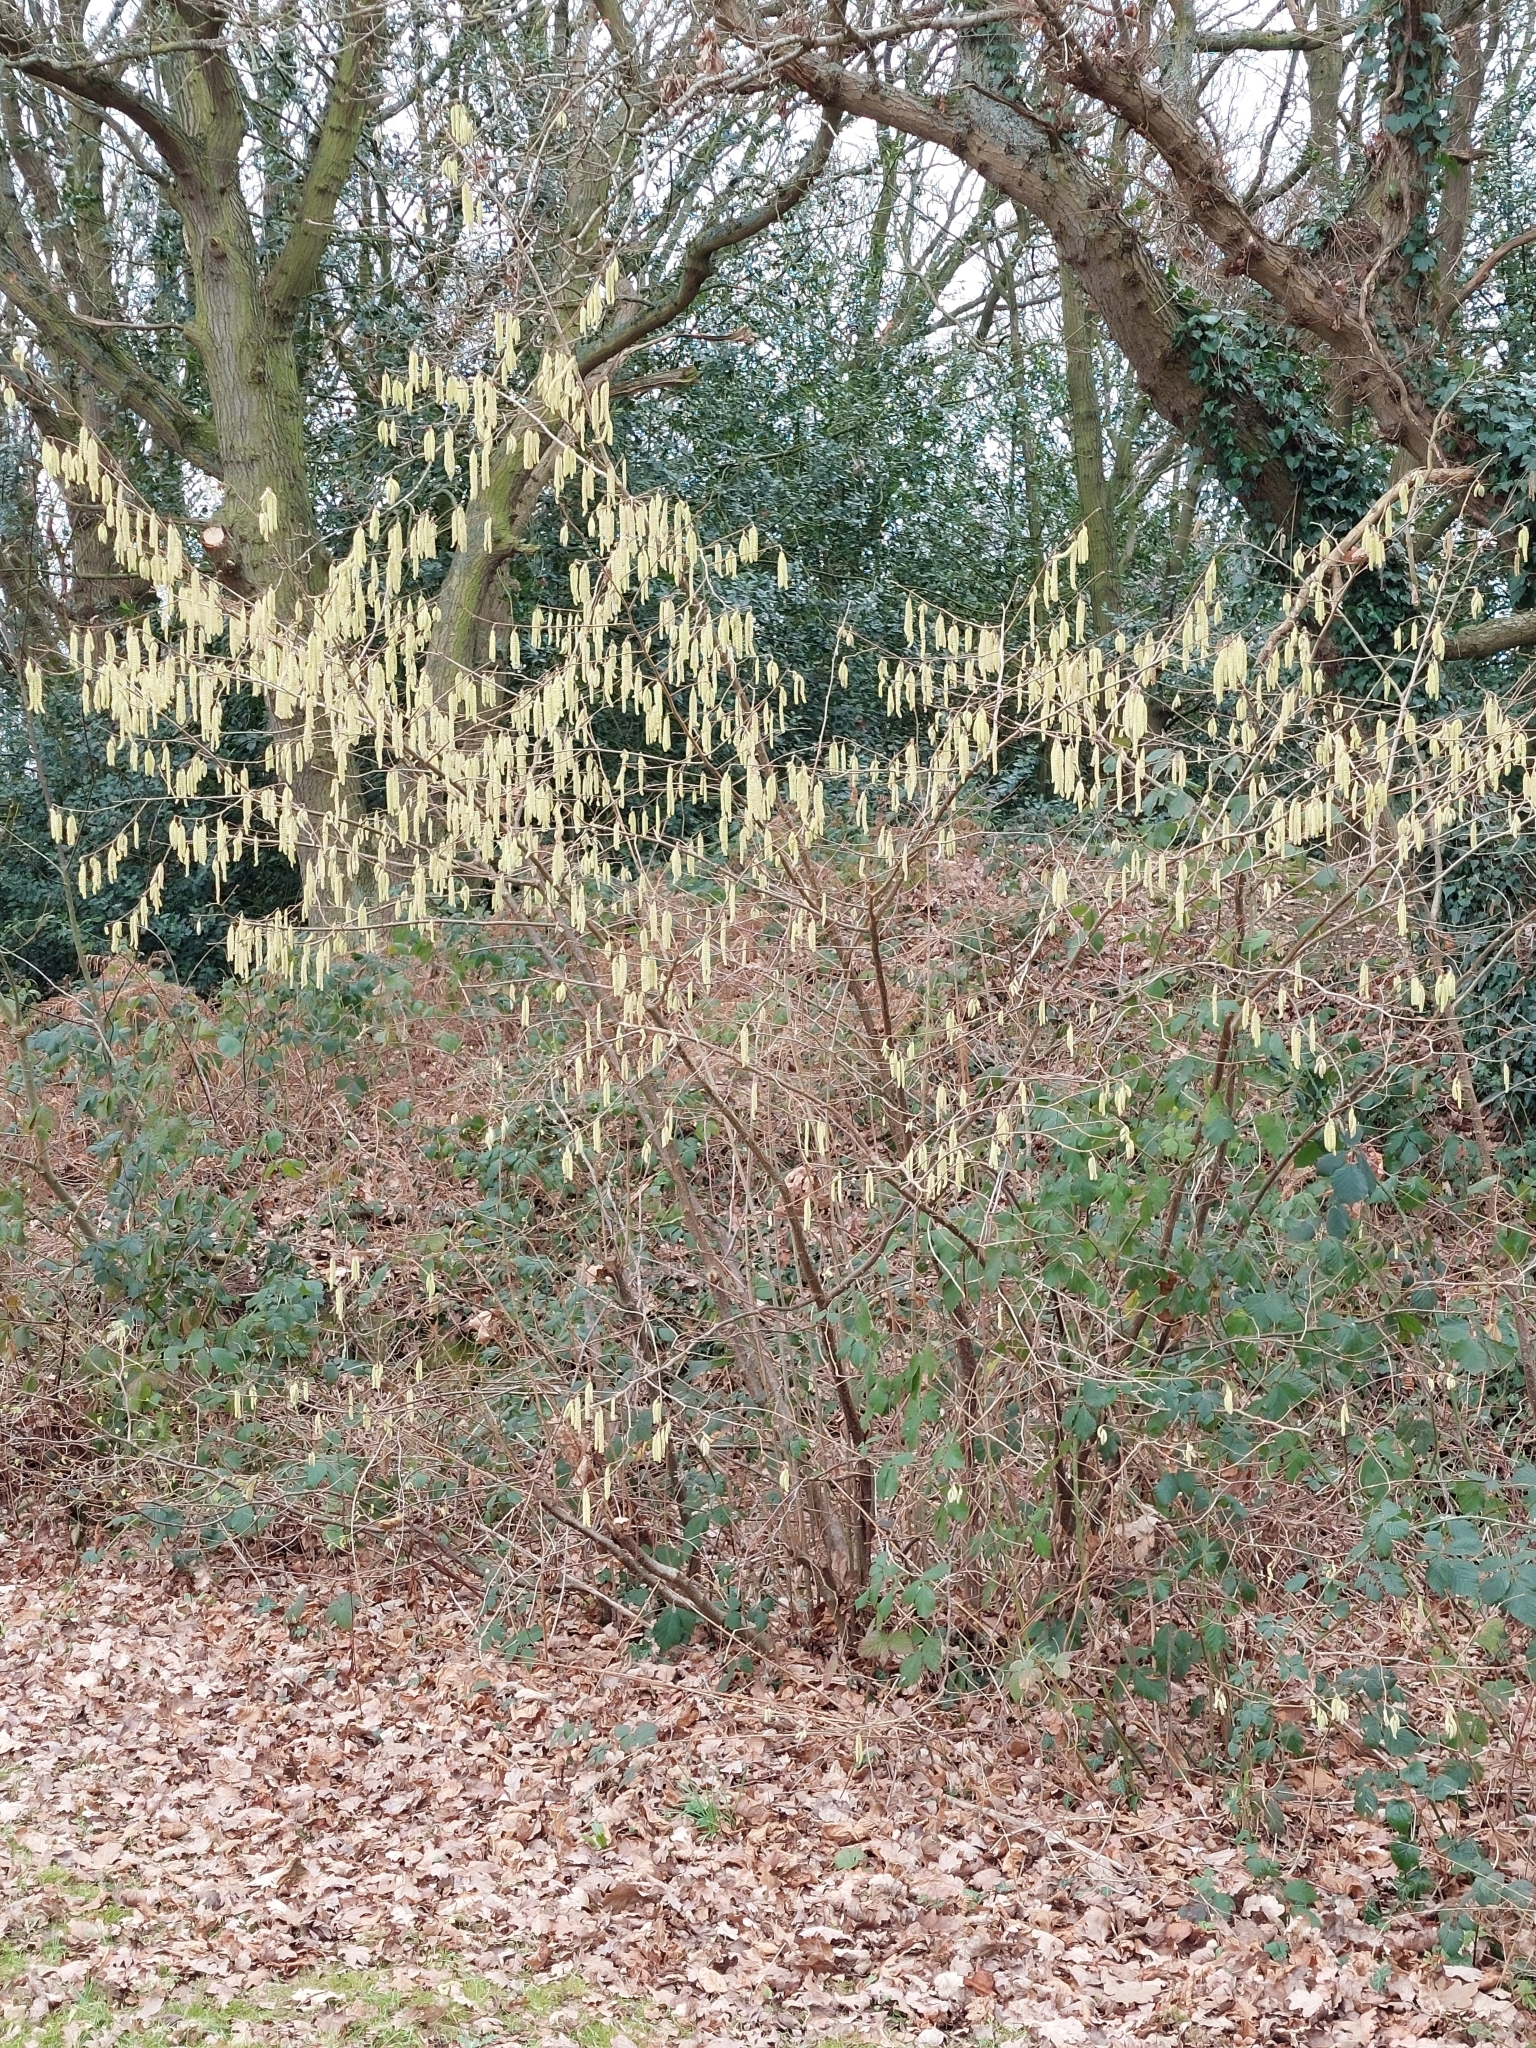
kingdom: Plantae
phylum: Tracheophyta
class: Magnoliopsida
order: Fagales
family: Betulaceae
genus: Corylus
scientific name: Corylus avellana
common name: European hazel
